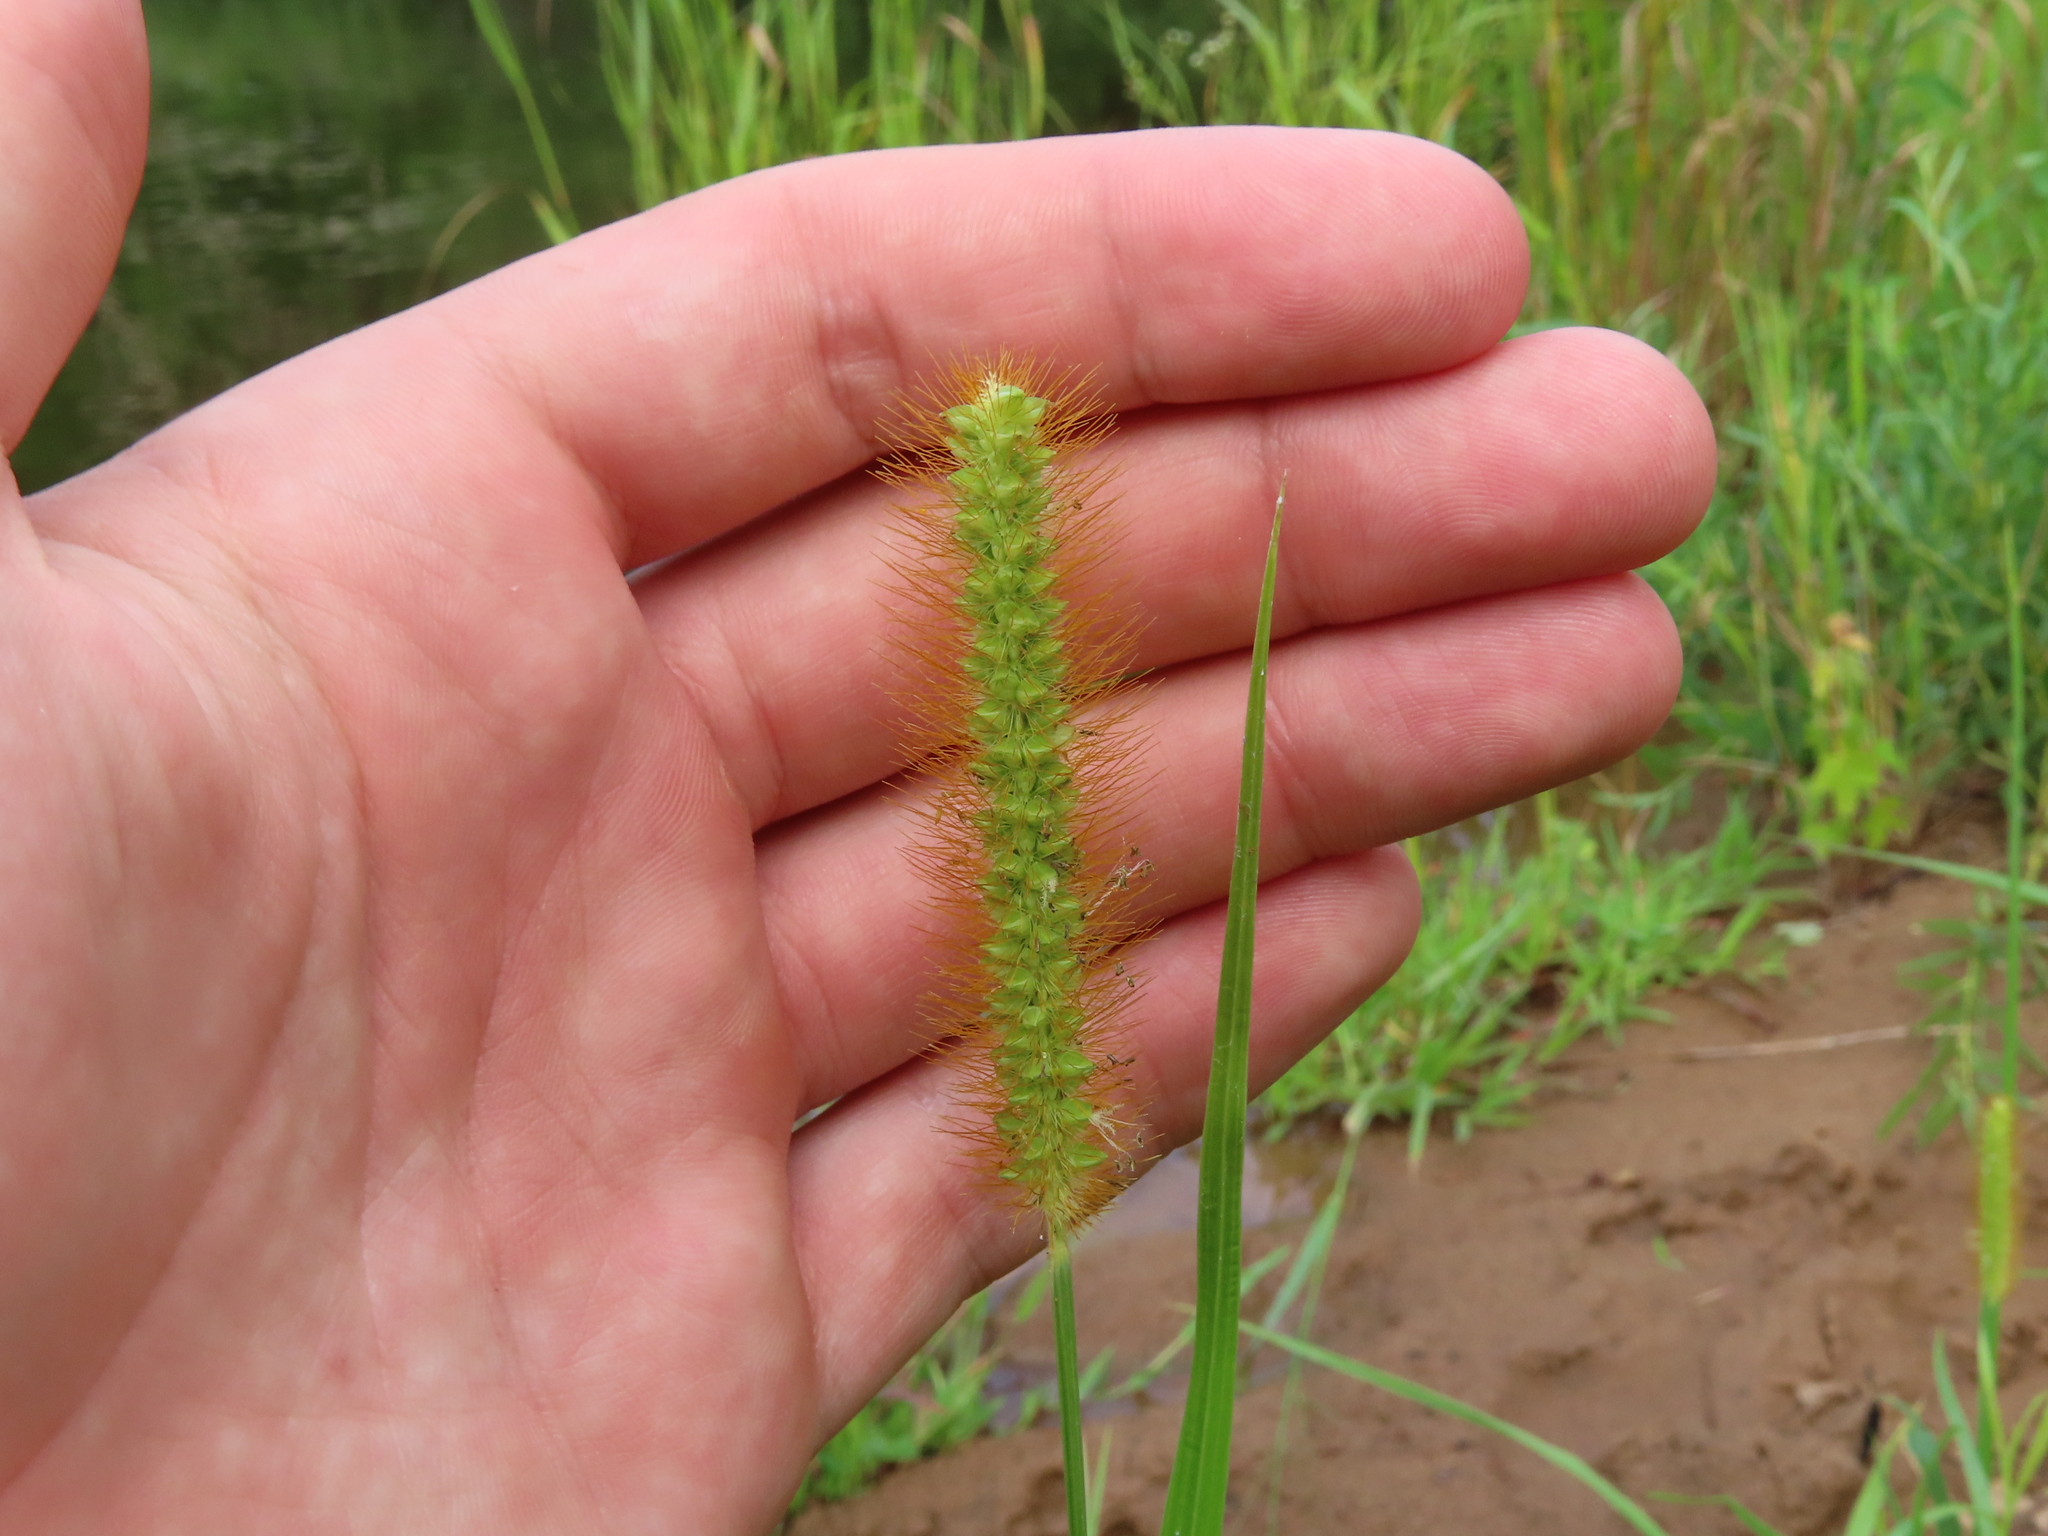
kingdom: Plantae
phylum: Tracheophyta
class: Liliopsida
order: Poales
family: Poaceae
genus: Setaria
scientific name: Setaria pumila
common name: Yellow bristle-grass
